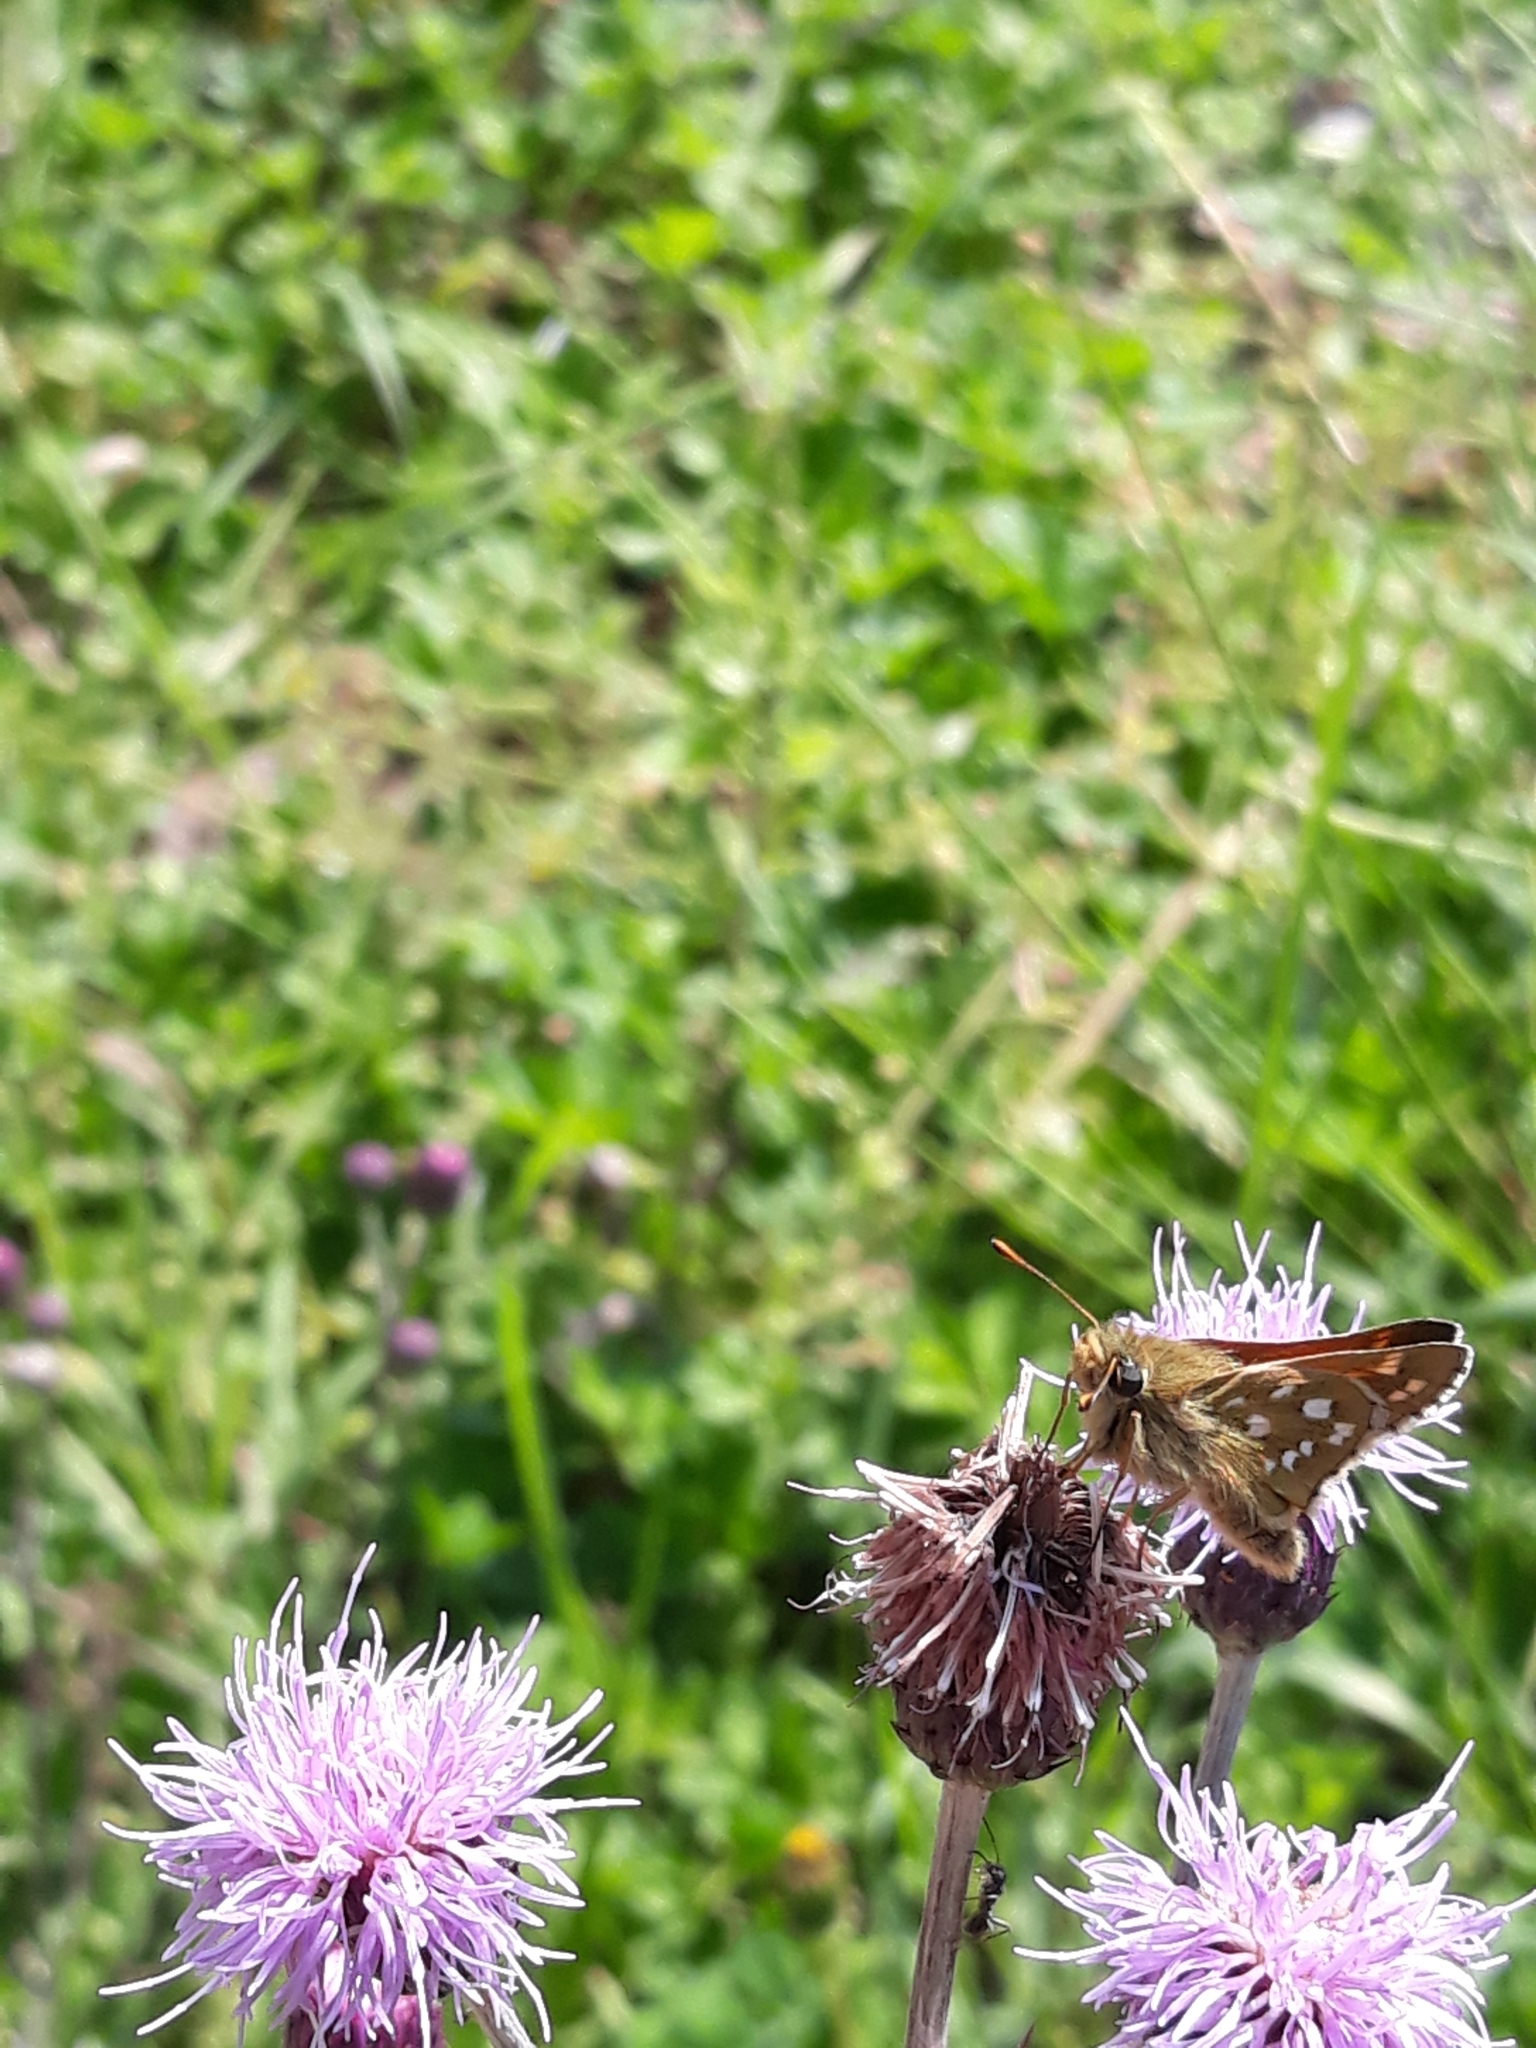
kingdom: Animalia
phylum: Arthropoda
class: Insecta
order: Lepidoptera
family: Hesperiidae
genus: Hesperia
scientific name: Hesperia comma
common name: Common branded skipper
